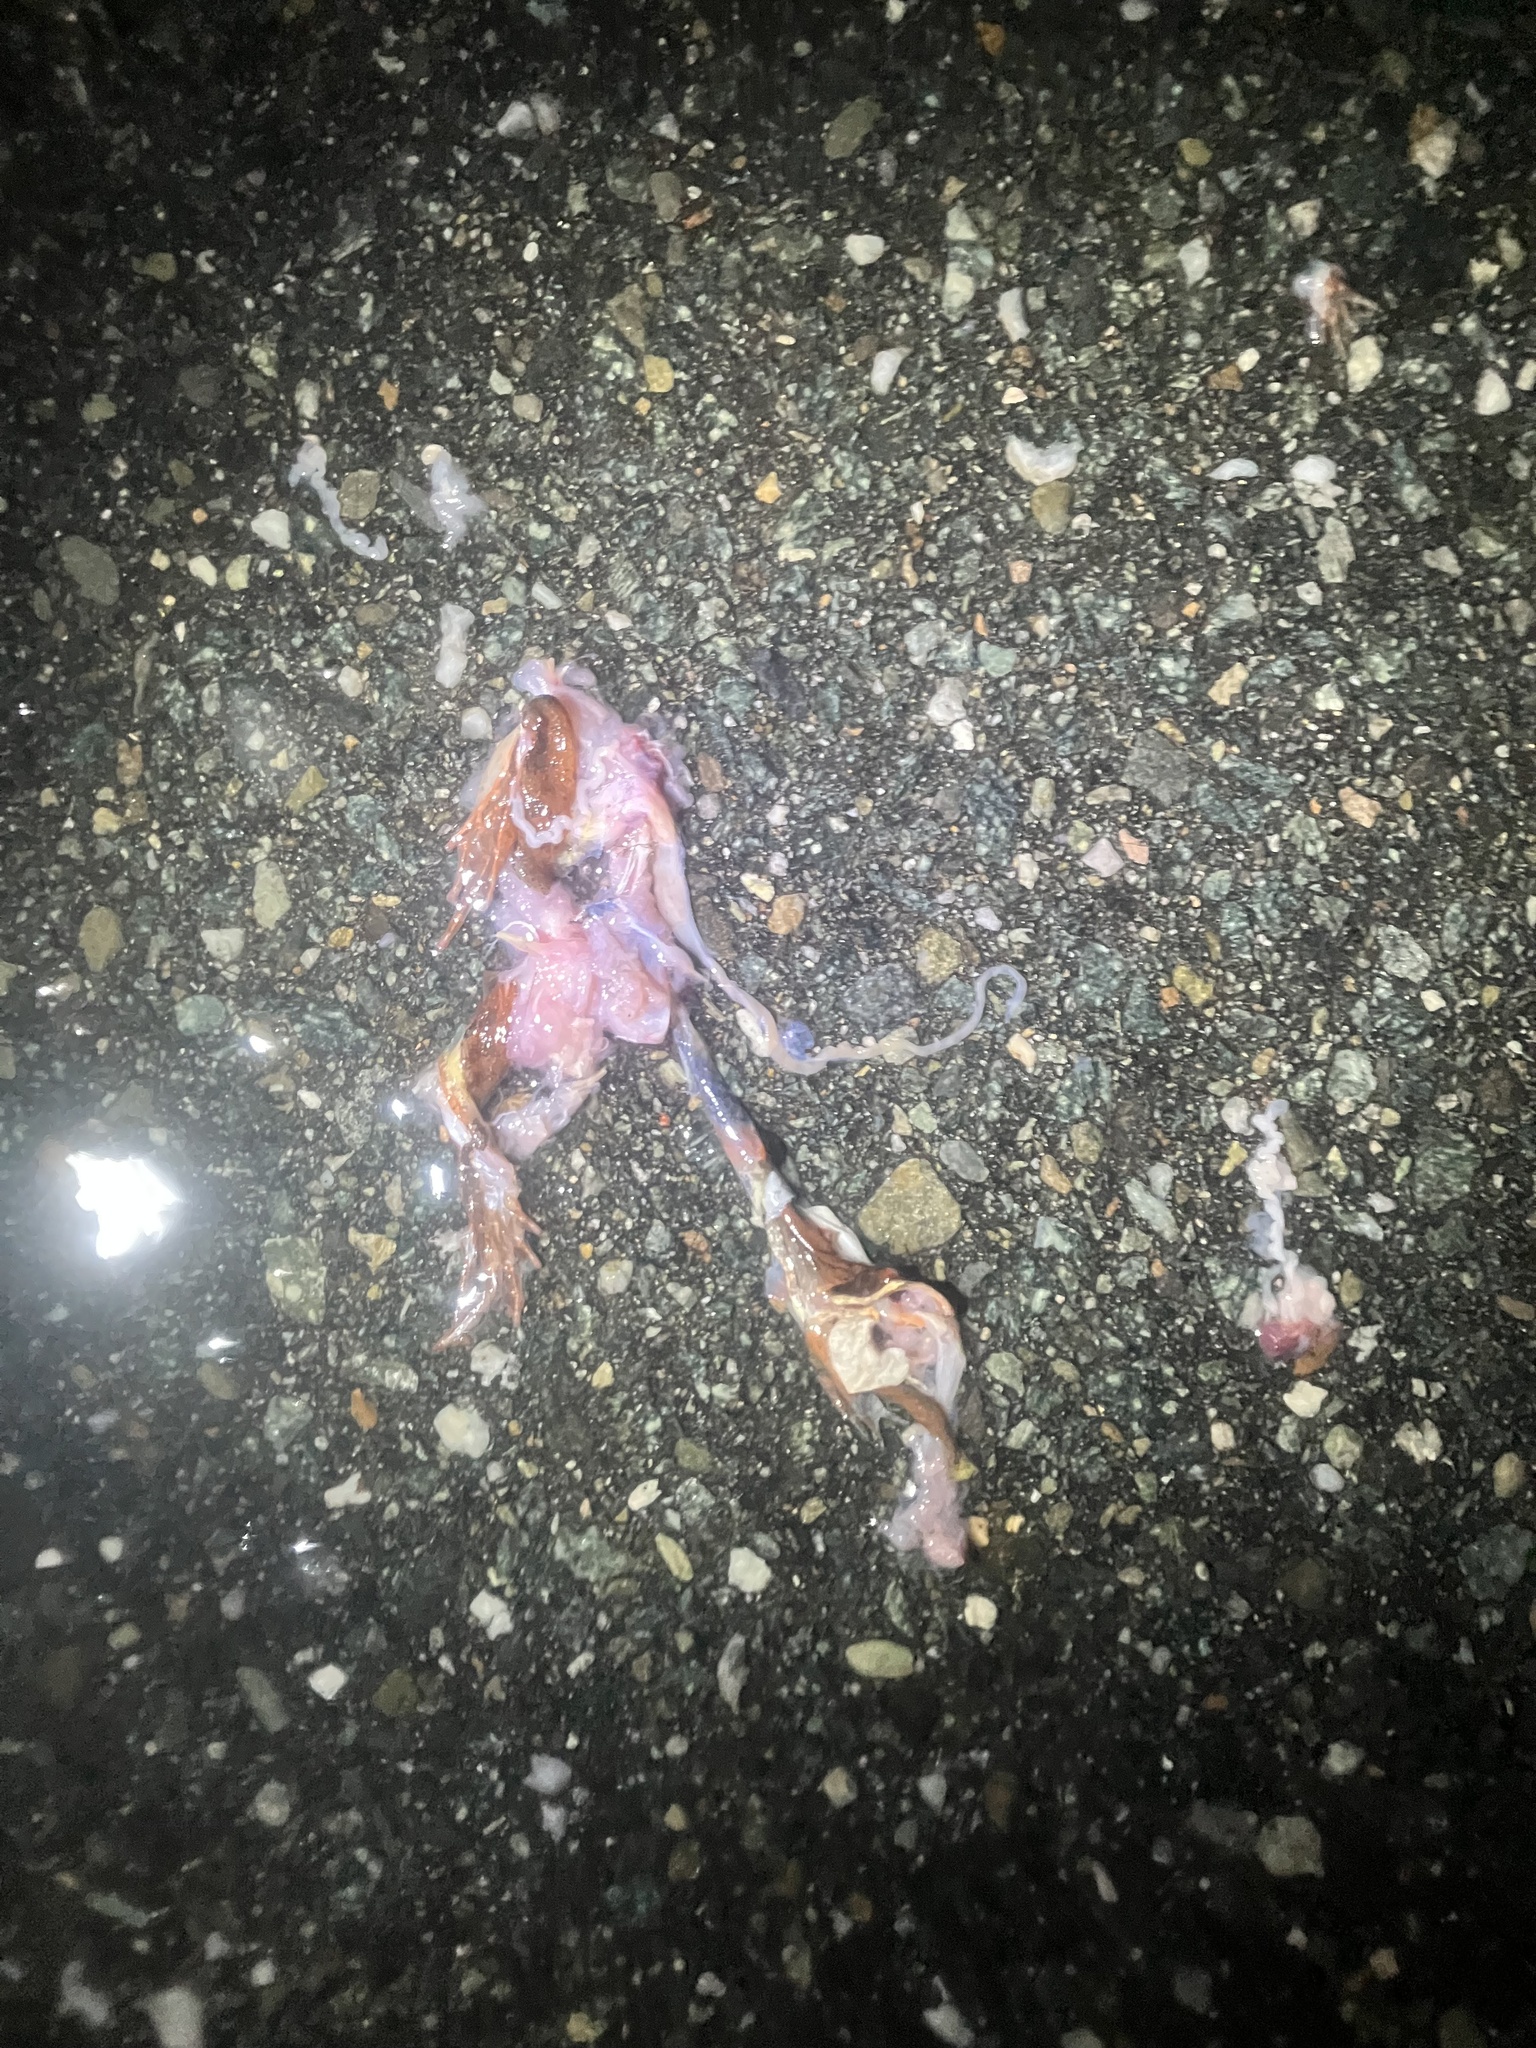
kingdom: Animalia
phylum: Chordata
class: Amphibia
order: Anura
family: Ranidae
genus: Lithobates
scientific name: Lithobates sylvaticus
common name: Wood frog
